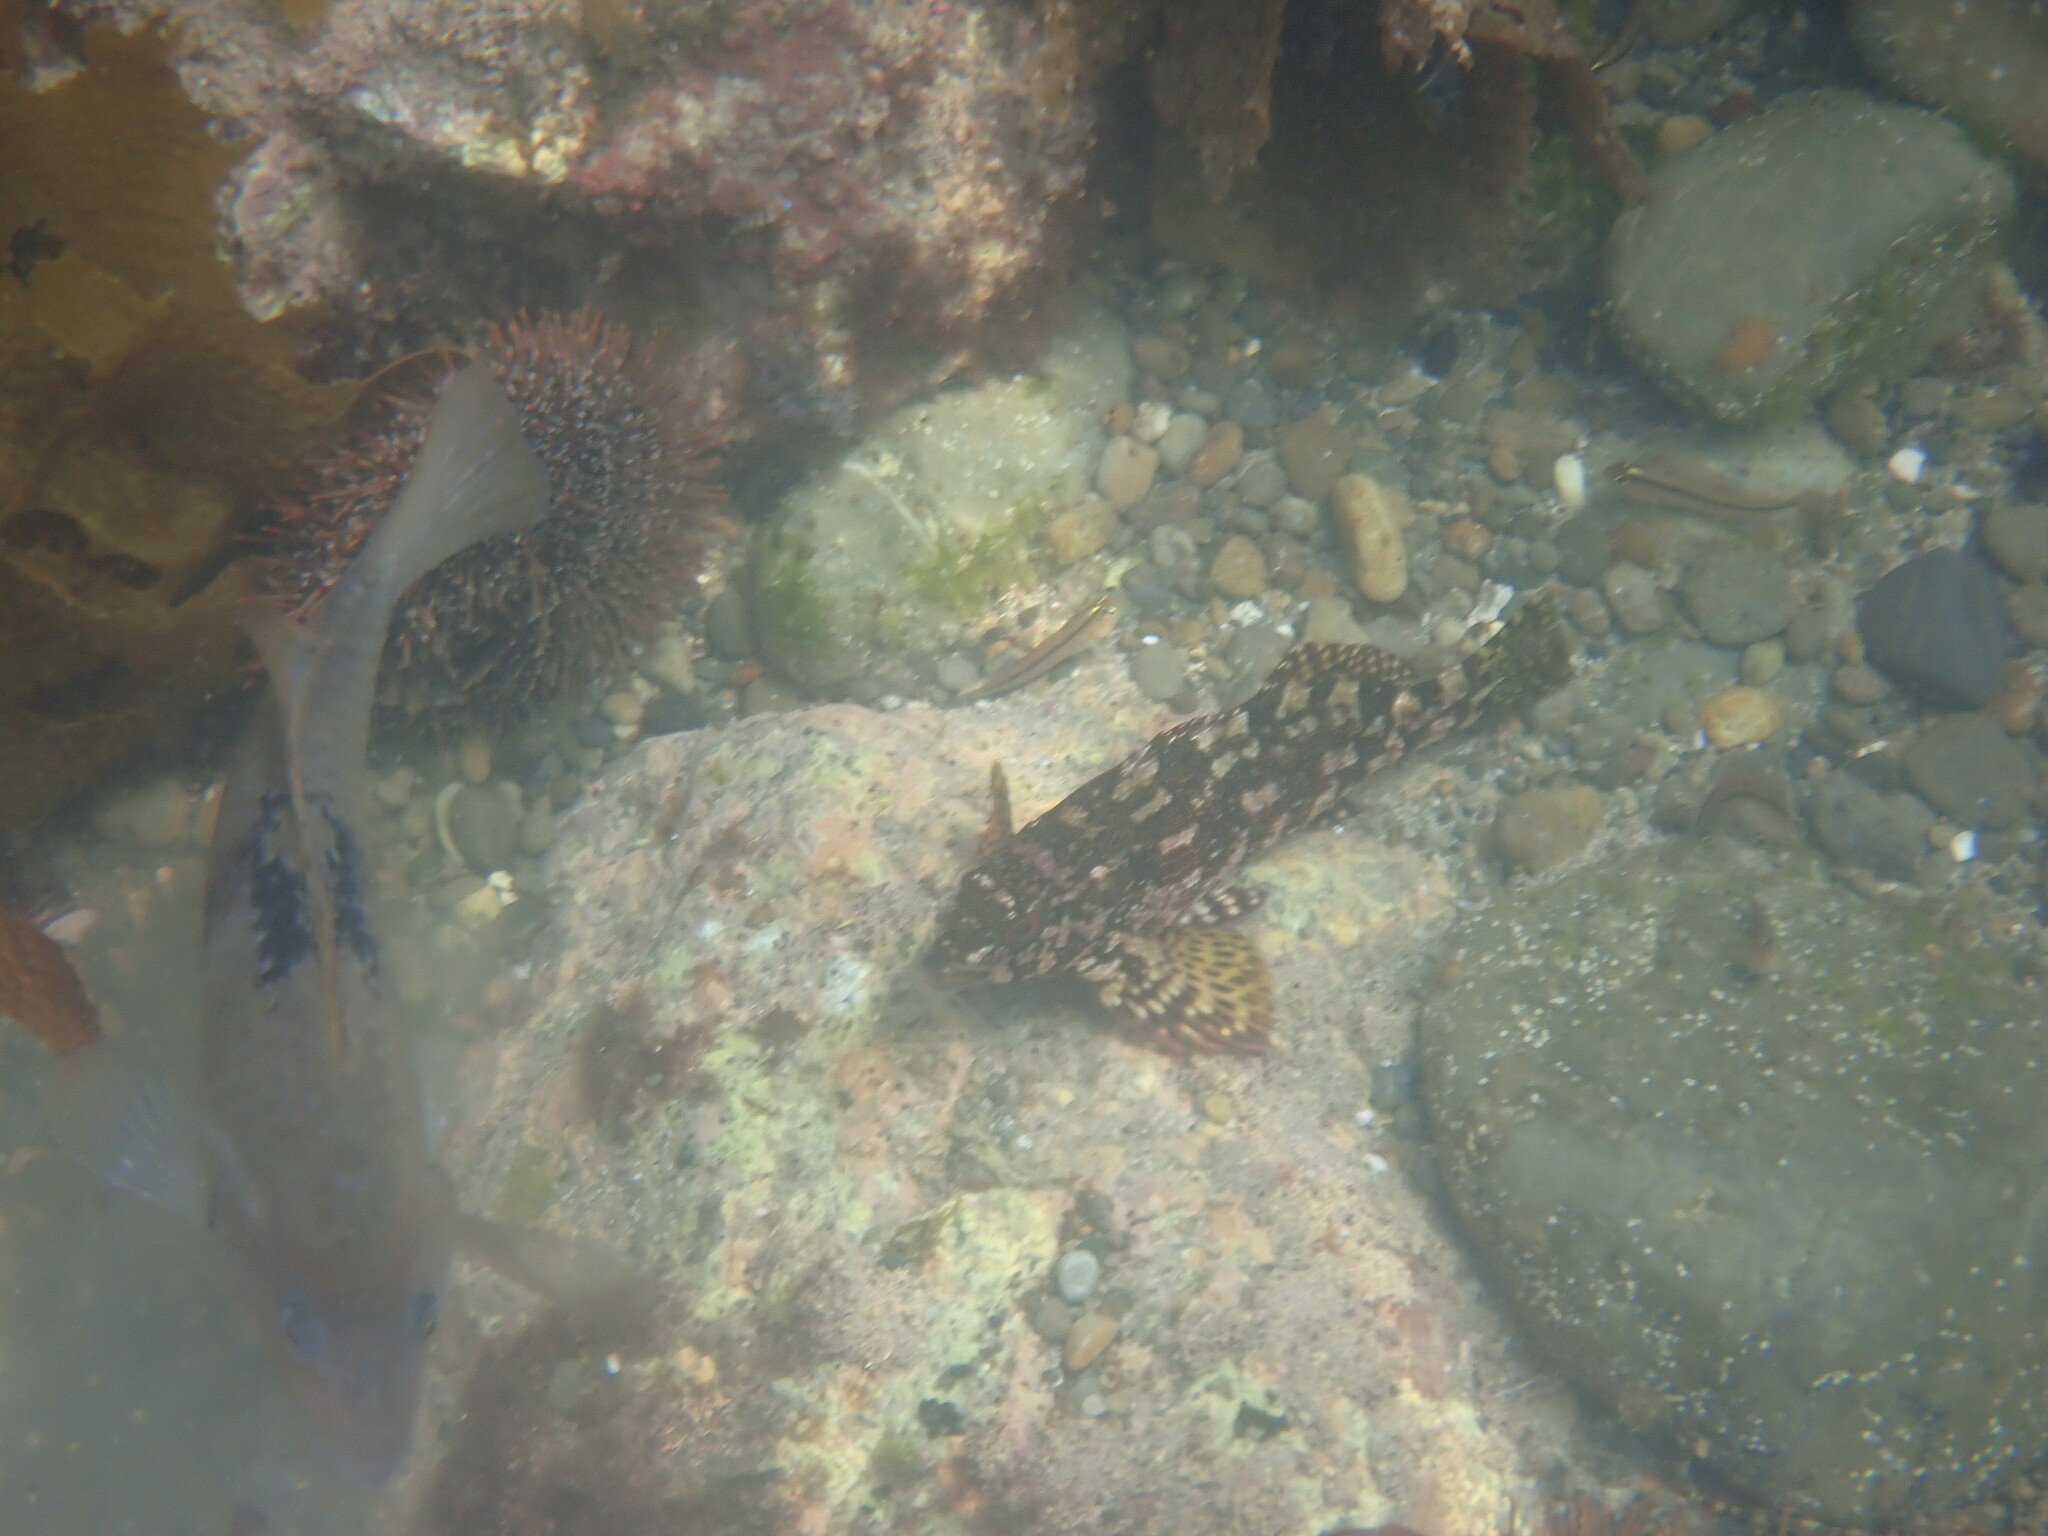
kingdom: Animalia
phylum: Chordata
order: Perciformes
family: Chironemidae
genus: Chironemus
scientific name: Chironemus marmoratus
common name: Kelpfish
